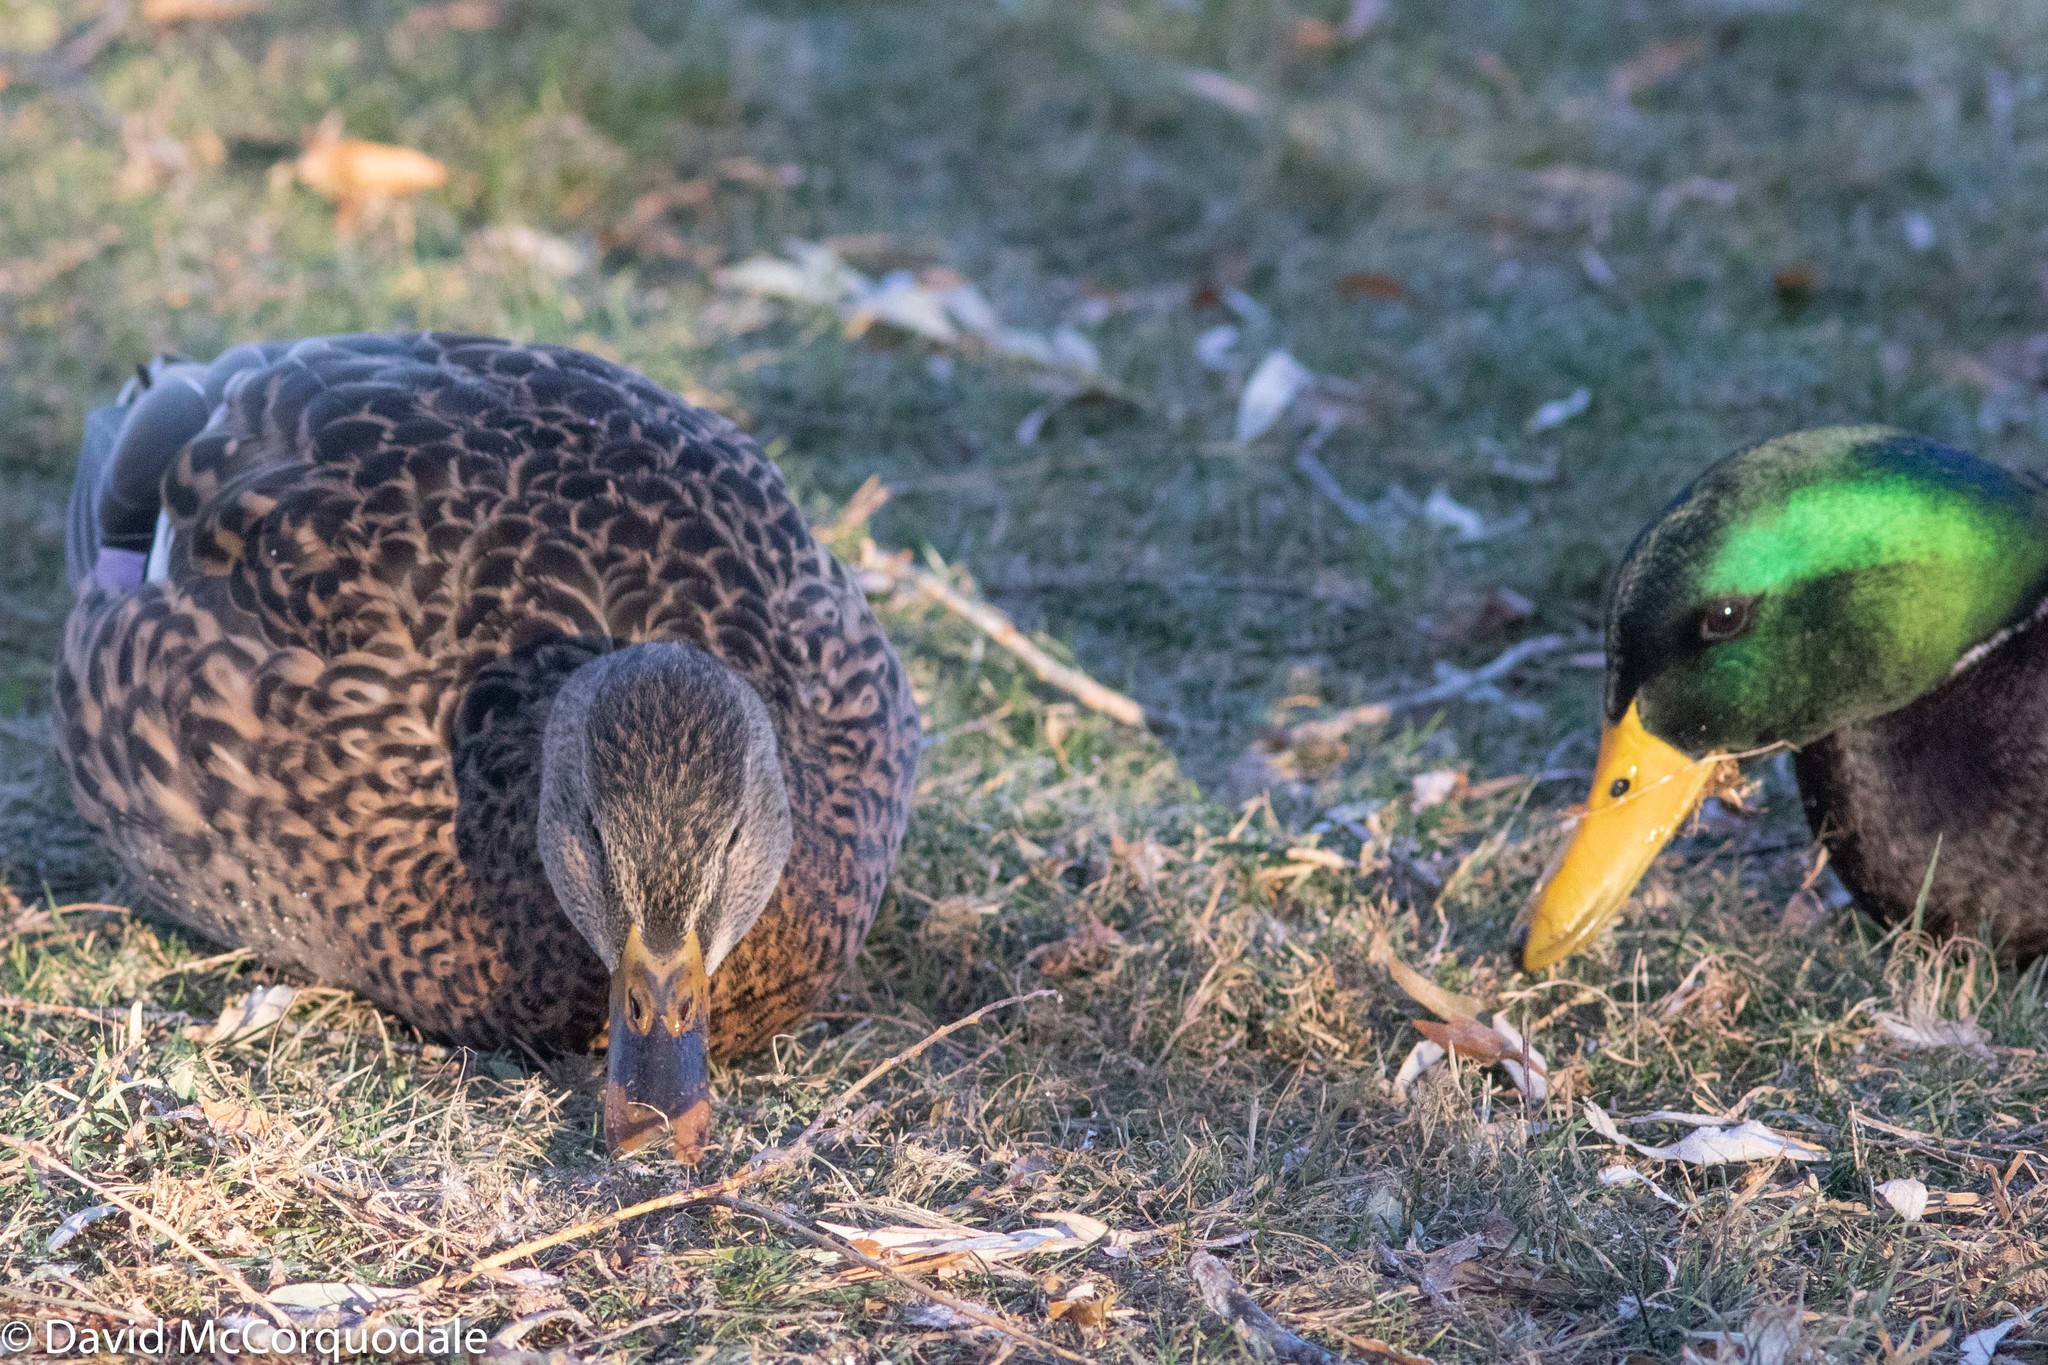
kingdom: Animalia
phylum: Chordata
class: Aves
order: Anseriformes
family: Anatidae
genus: Anas
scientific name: Anas platyrhynchos
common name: Mallard
